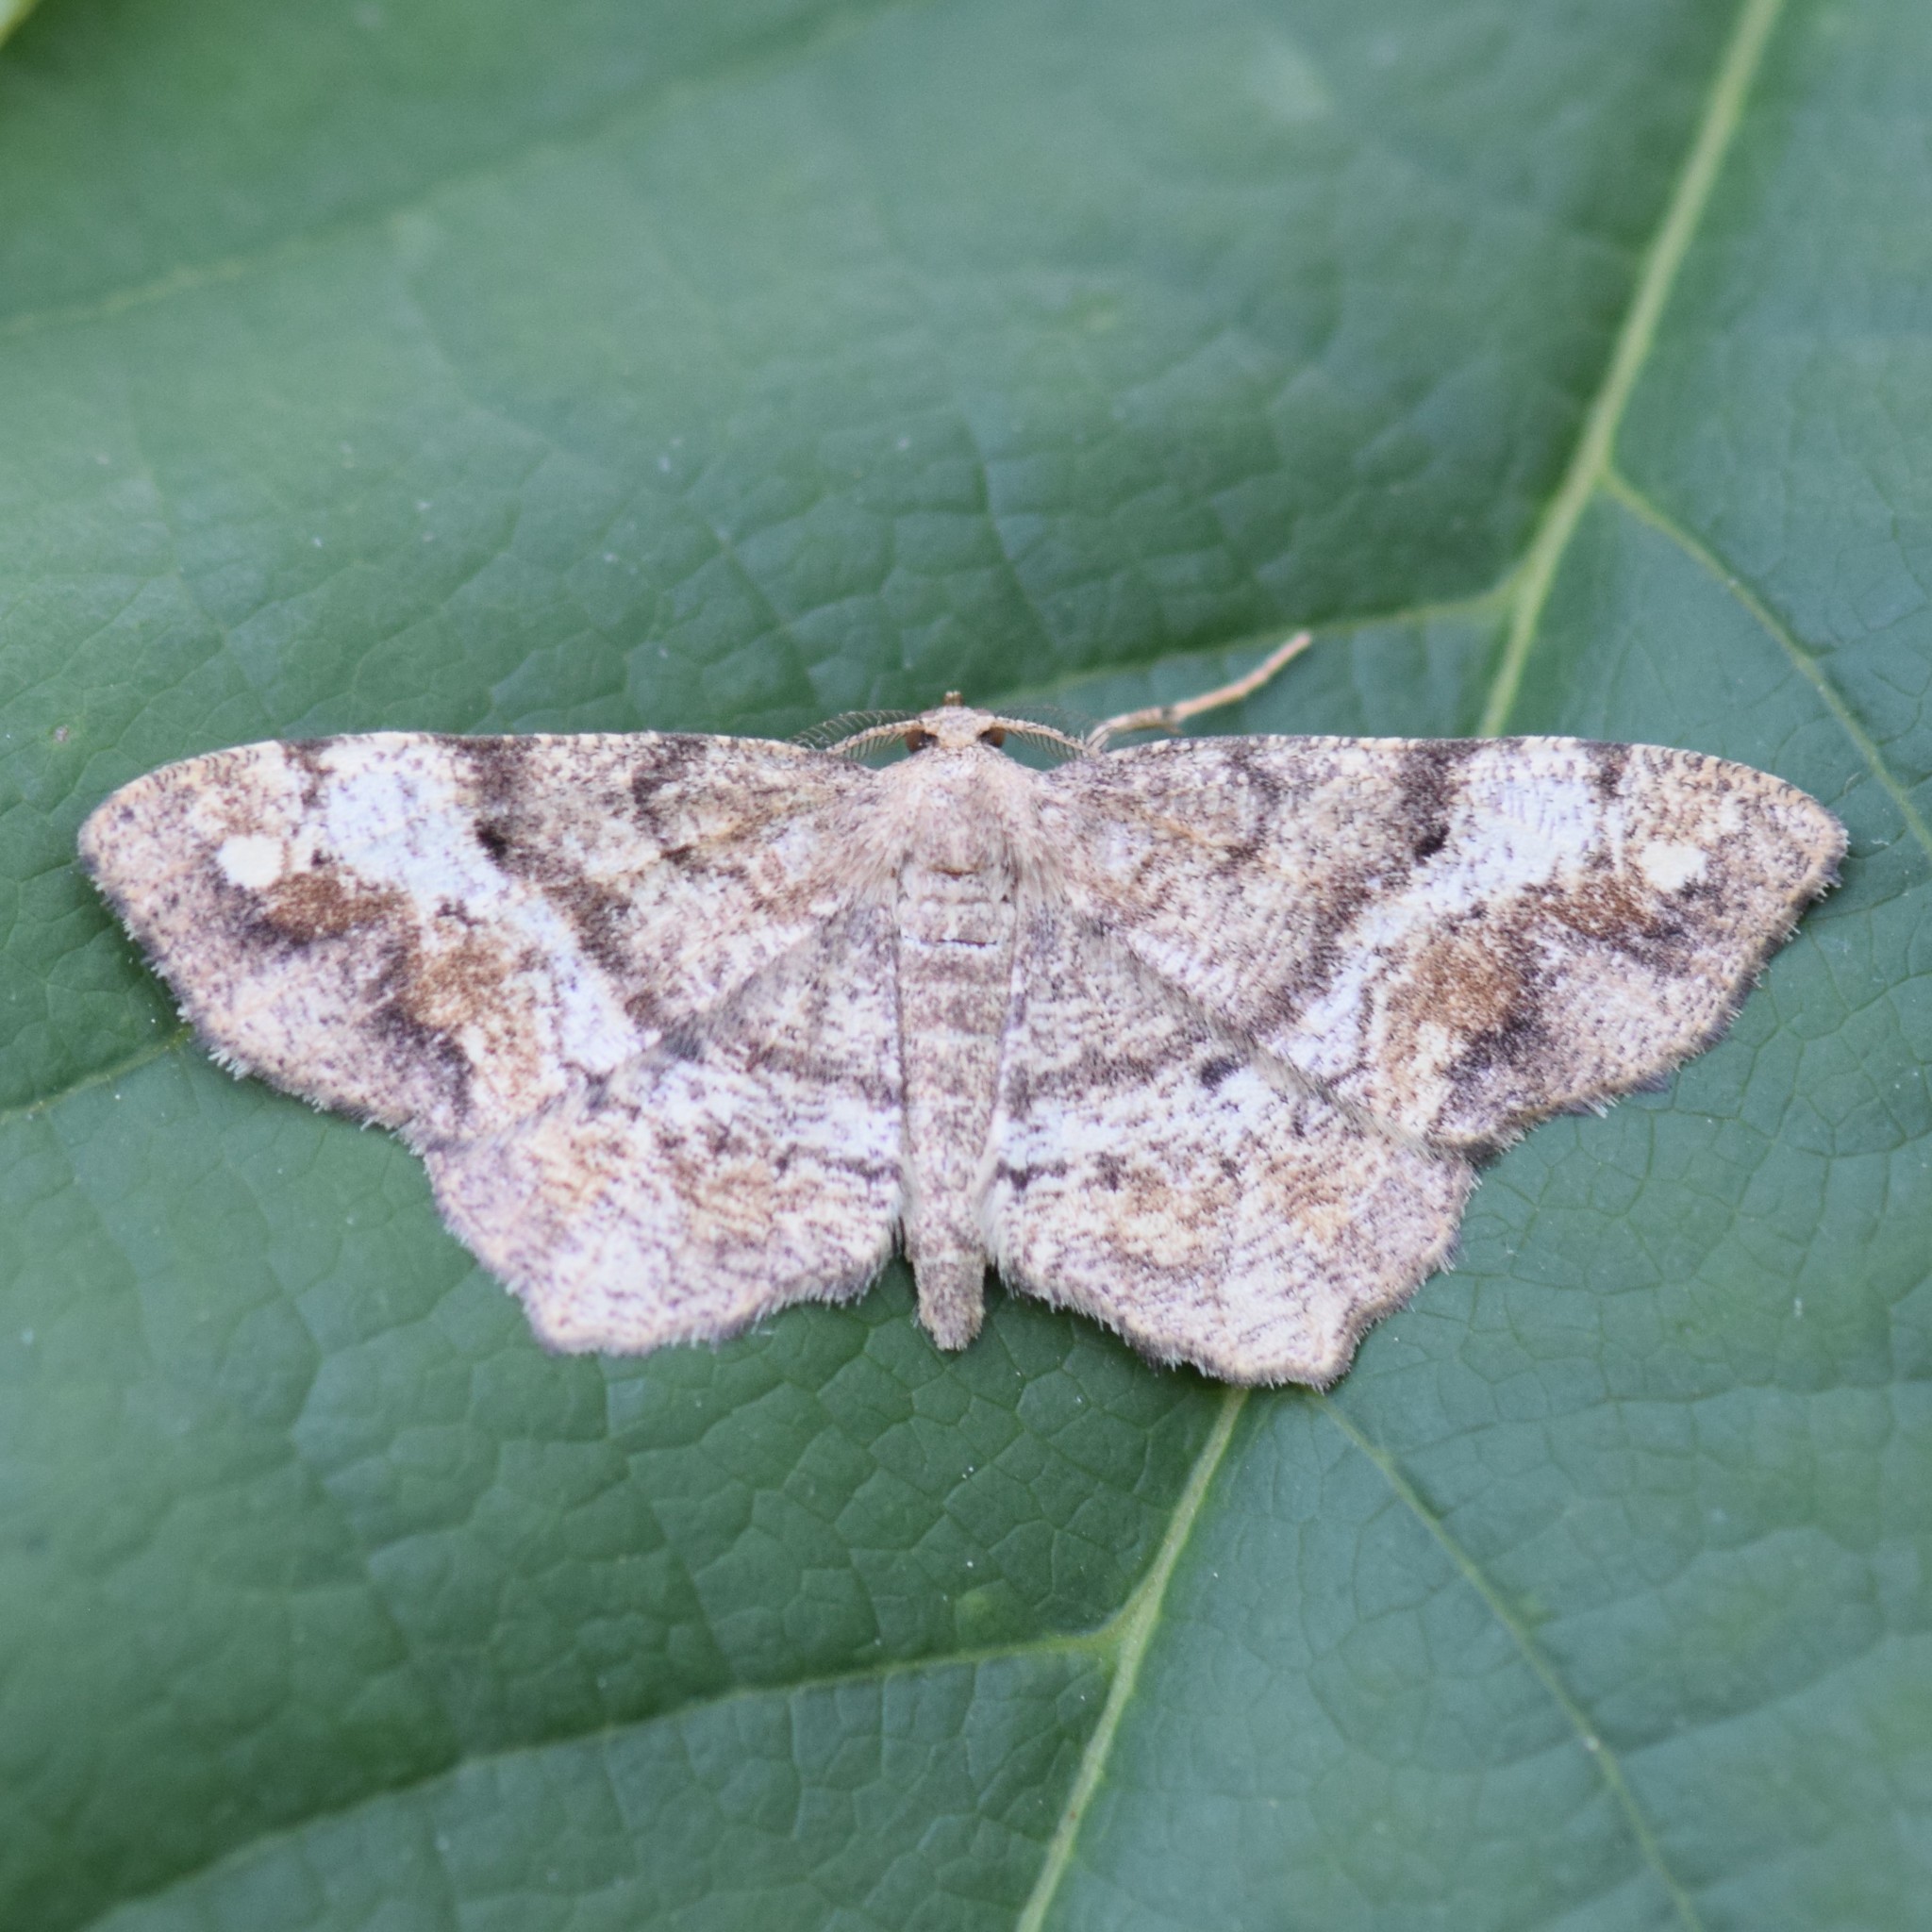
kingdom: Animalia
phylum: Arthropoda
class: Insecta
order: Lepidoptera
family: Geometridae
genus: Hypagyrtis
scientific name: Hypagyrtis unipunctata
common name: One-spotted variant
